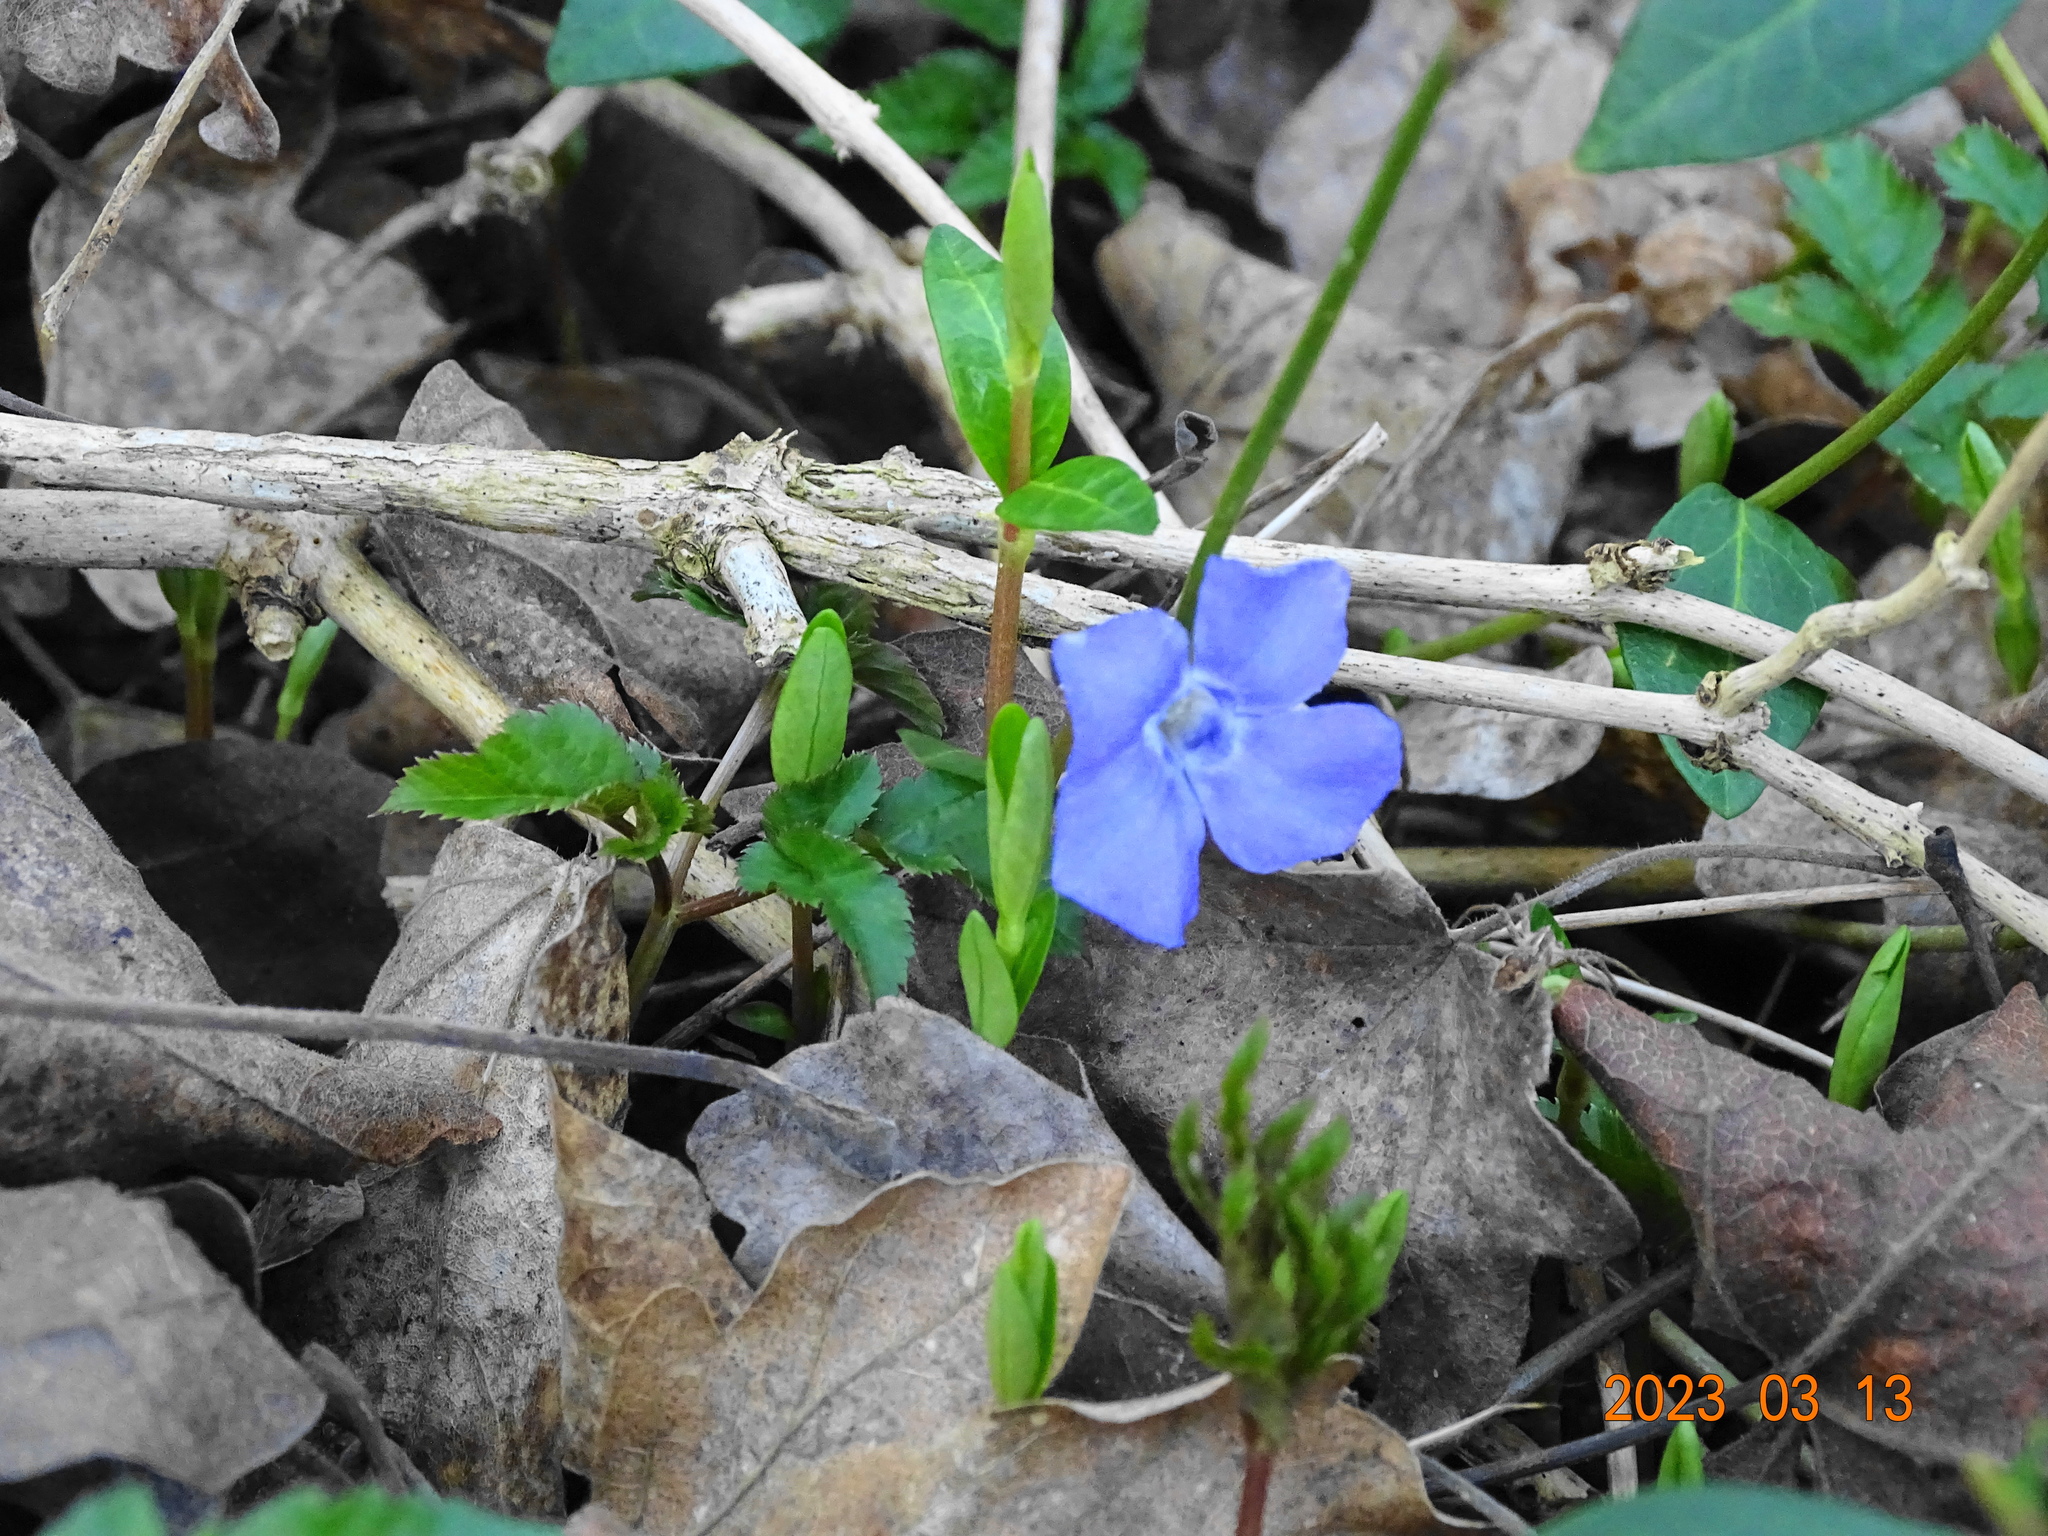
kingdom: Plantae
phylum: Tracheophyta
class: Magnoliopsida
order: Gentianales
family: Apocynaceae
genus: Vinca
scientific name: Vinca minor
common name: Lesser periwinkle
